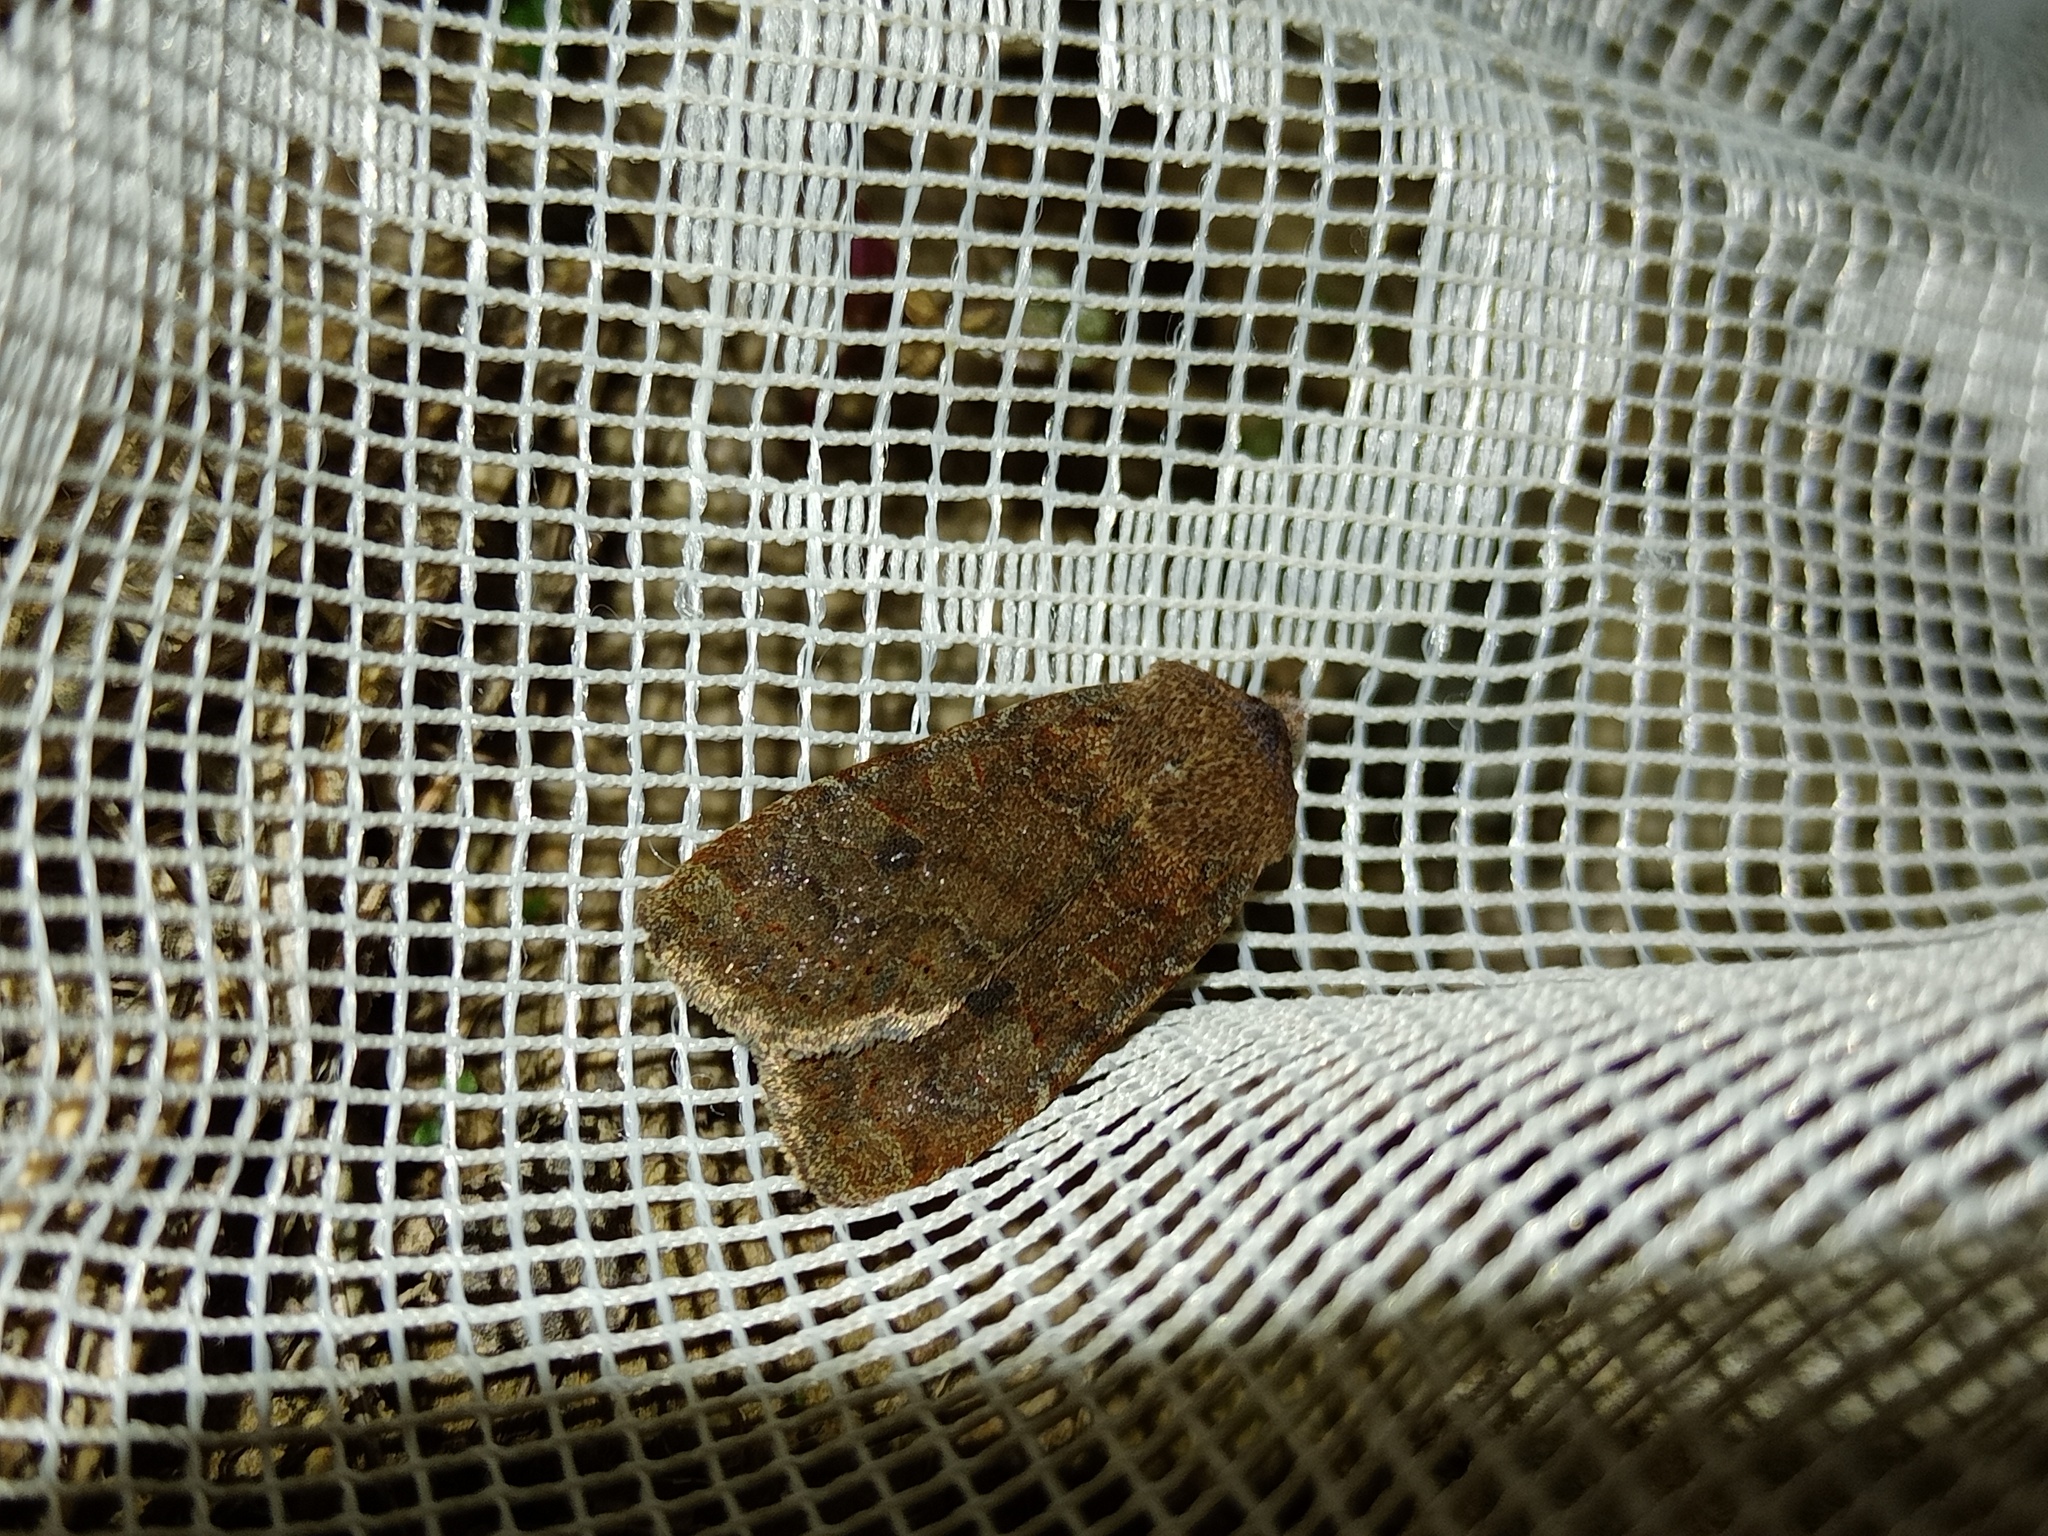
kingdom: Animalia
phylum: Arthropoda
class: Insecta
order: Lepidoptera
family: Noctuidae
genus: Conistra
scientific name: Conistra vaccinii
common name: Chestnut
